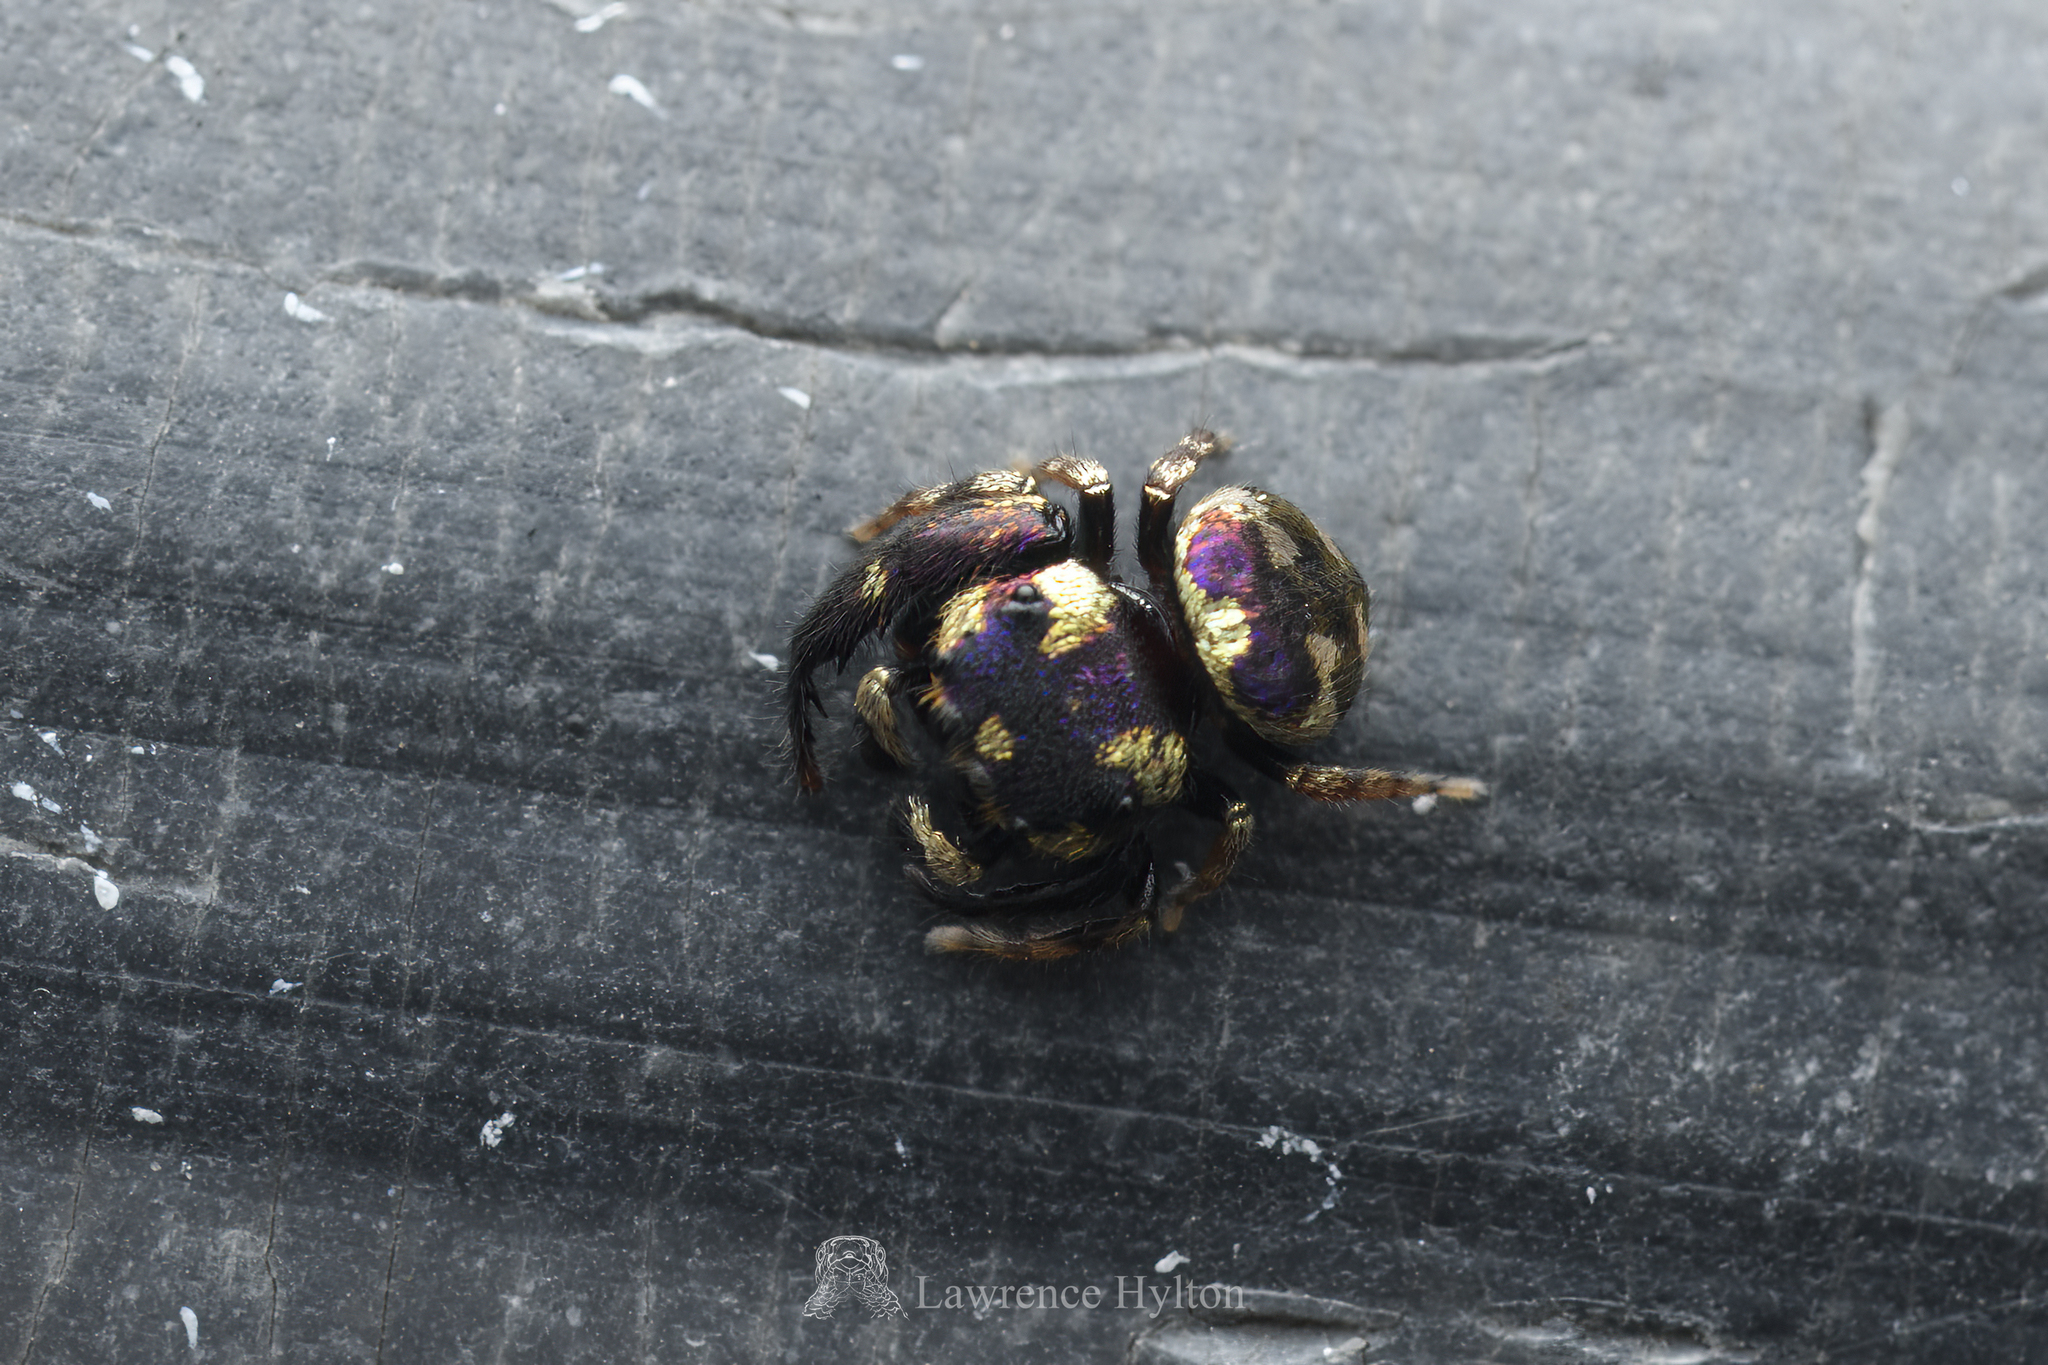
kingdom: Animalia
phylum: Arthropoda
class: Arachnida
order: Araneae
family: Salticidae
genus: Irura
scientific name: Irura bidenticulata
